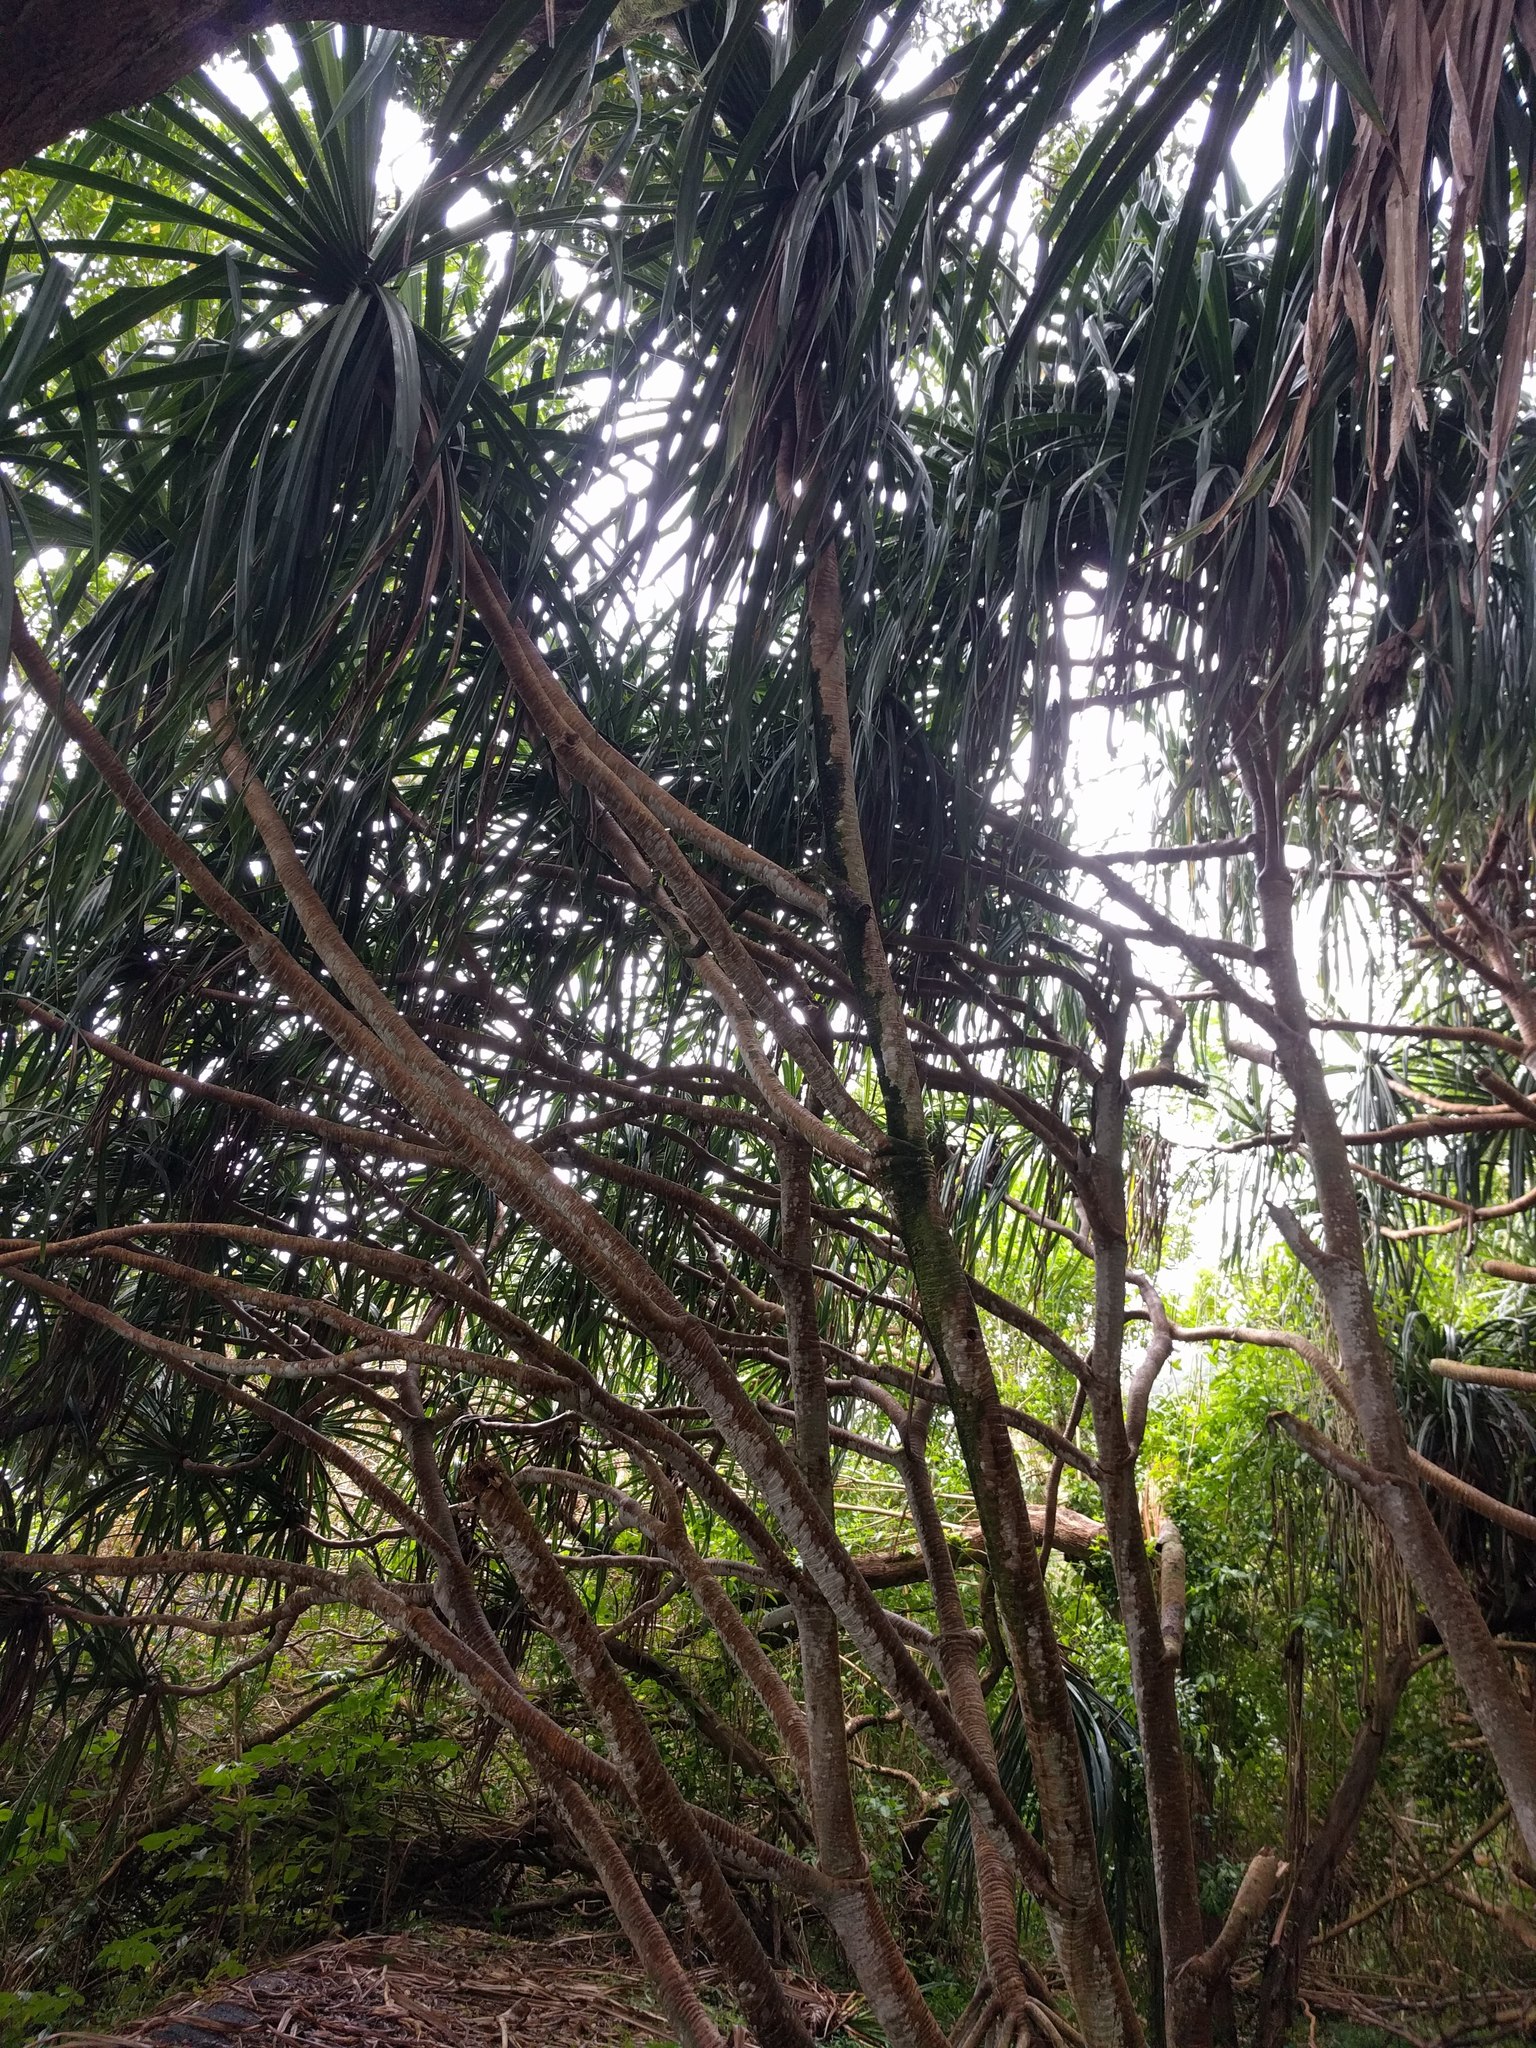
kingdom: Plantae
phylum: Tracheophyta
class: Liliopsida
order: Pandanales
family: Pandanaceae
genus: Pandanus
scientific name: Pandanus tectorius
